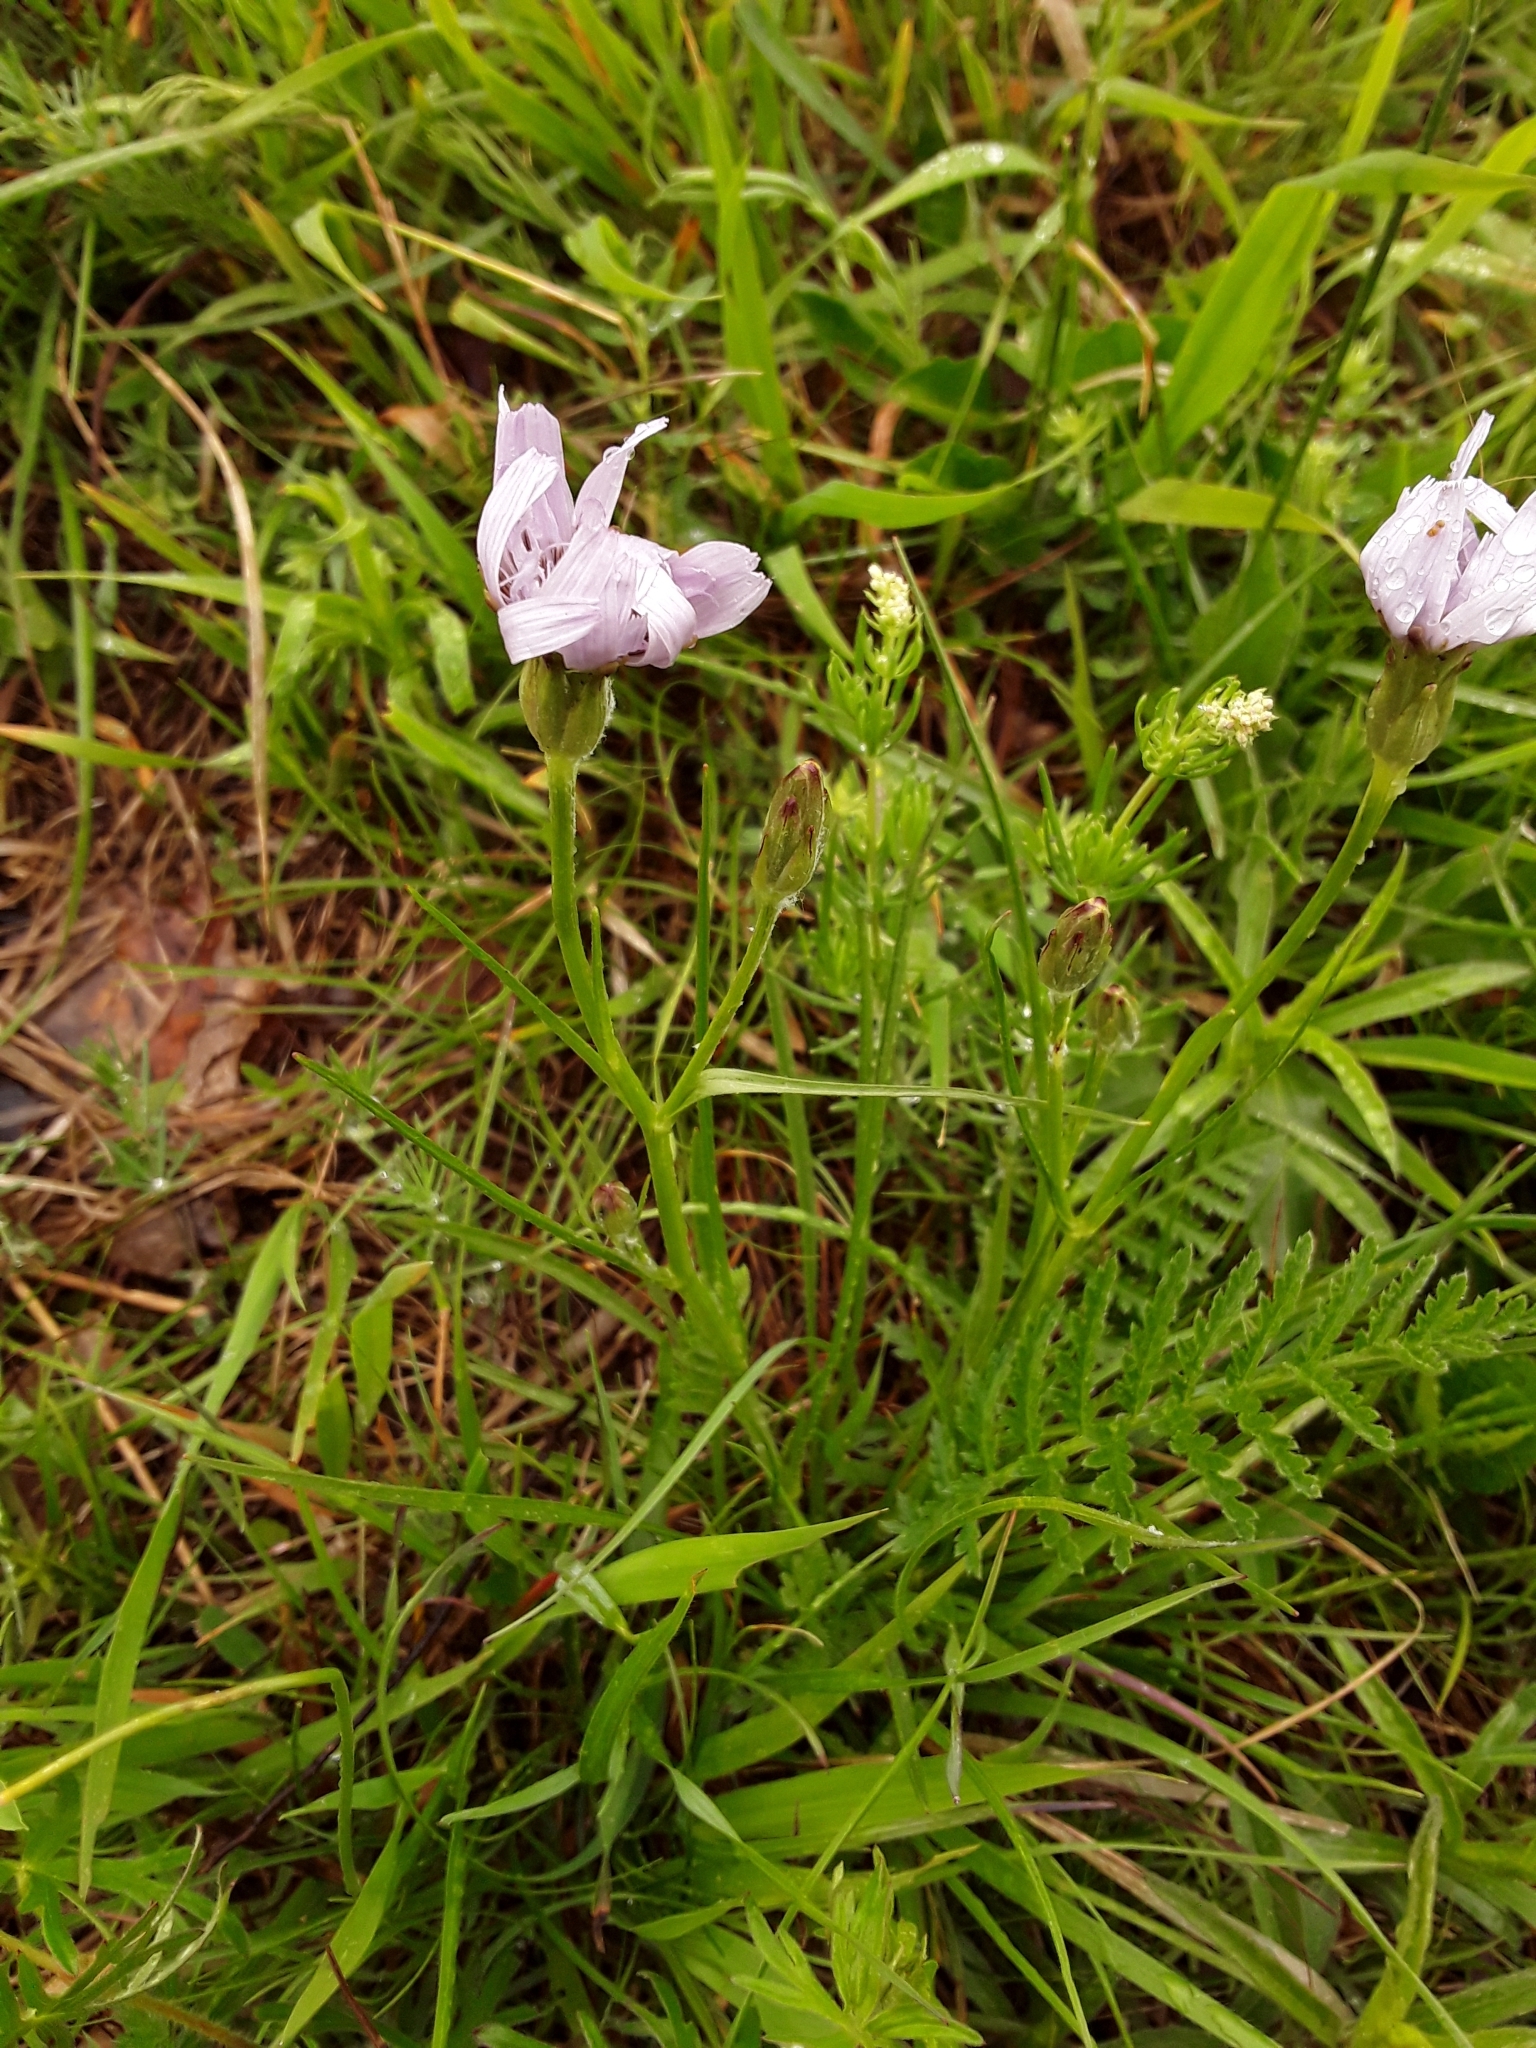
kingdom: Plantae
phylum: Tracheophyta
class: Magnoliopsida
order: Asterales
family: Asteraceae
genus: Scorzonera
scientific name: Scorzonera purpurea
